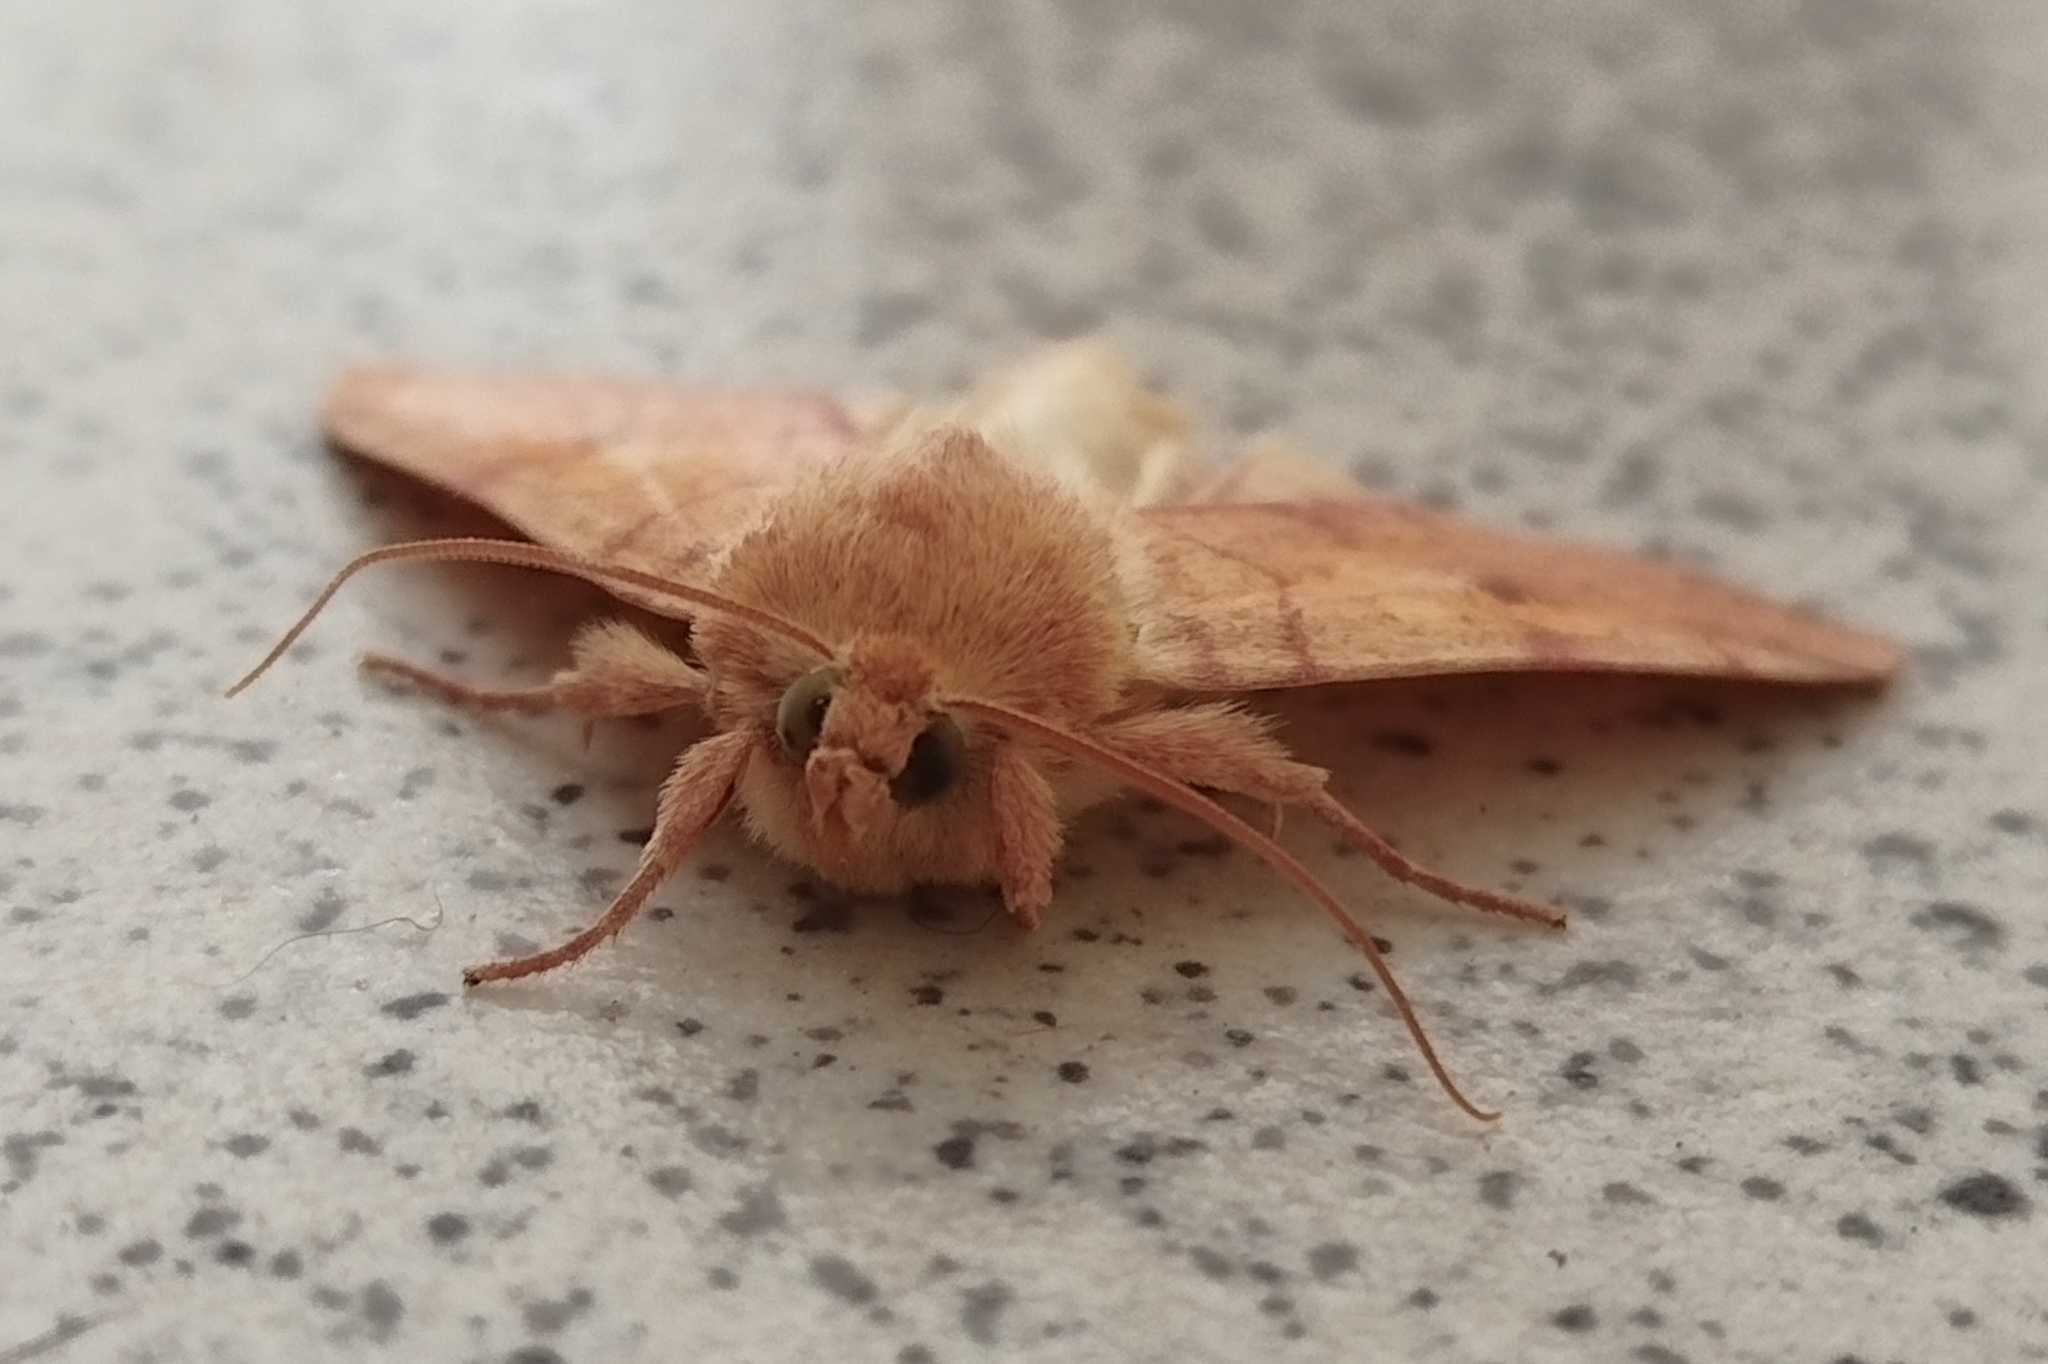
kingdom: Animalia
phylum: Arthropoda
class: Insecta
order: Lepidoptera
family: Noctuidae
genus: Enargia
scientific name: Enargia paleacea
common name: Angle-striped sallow
